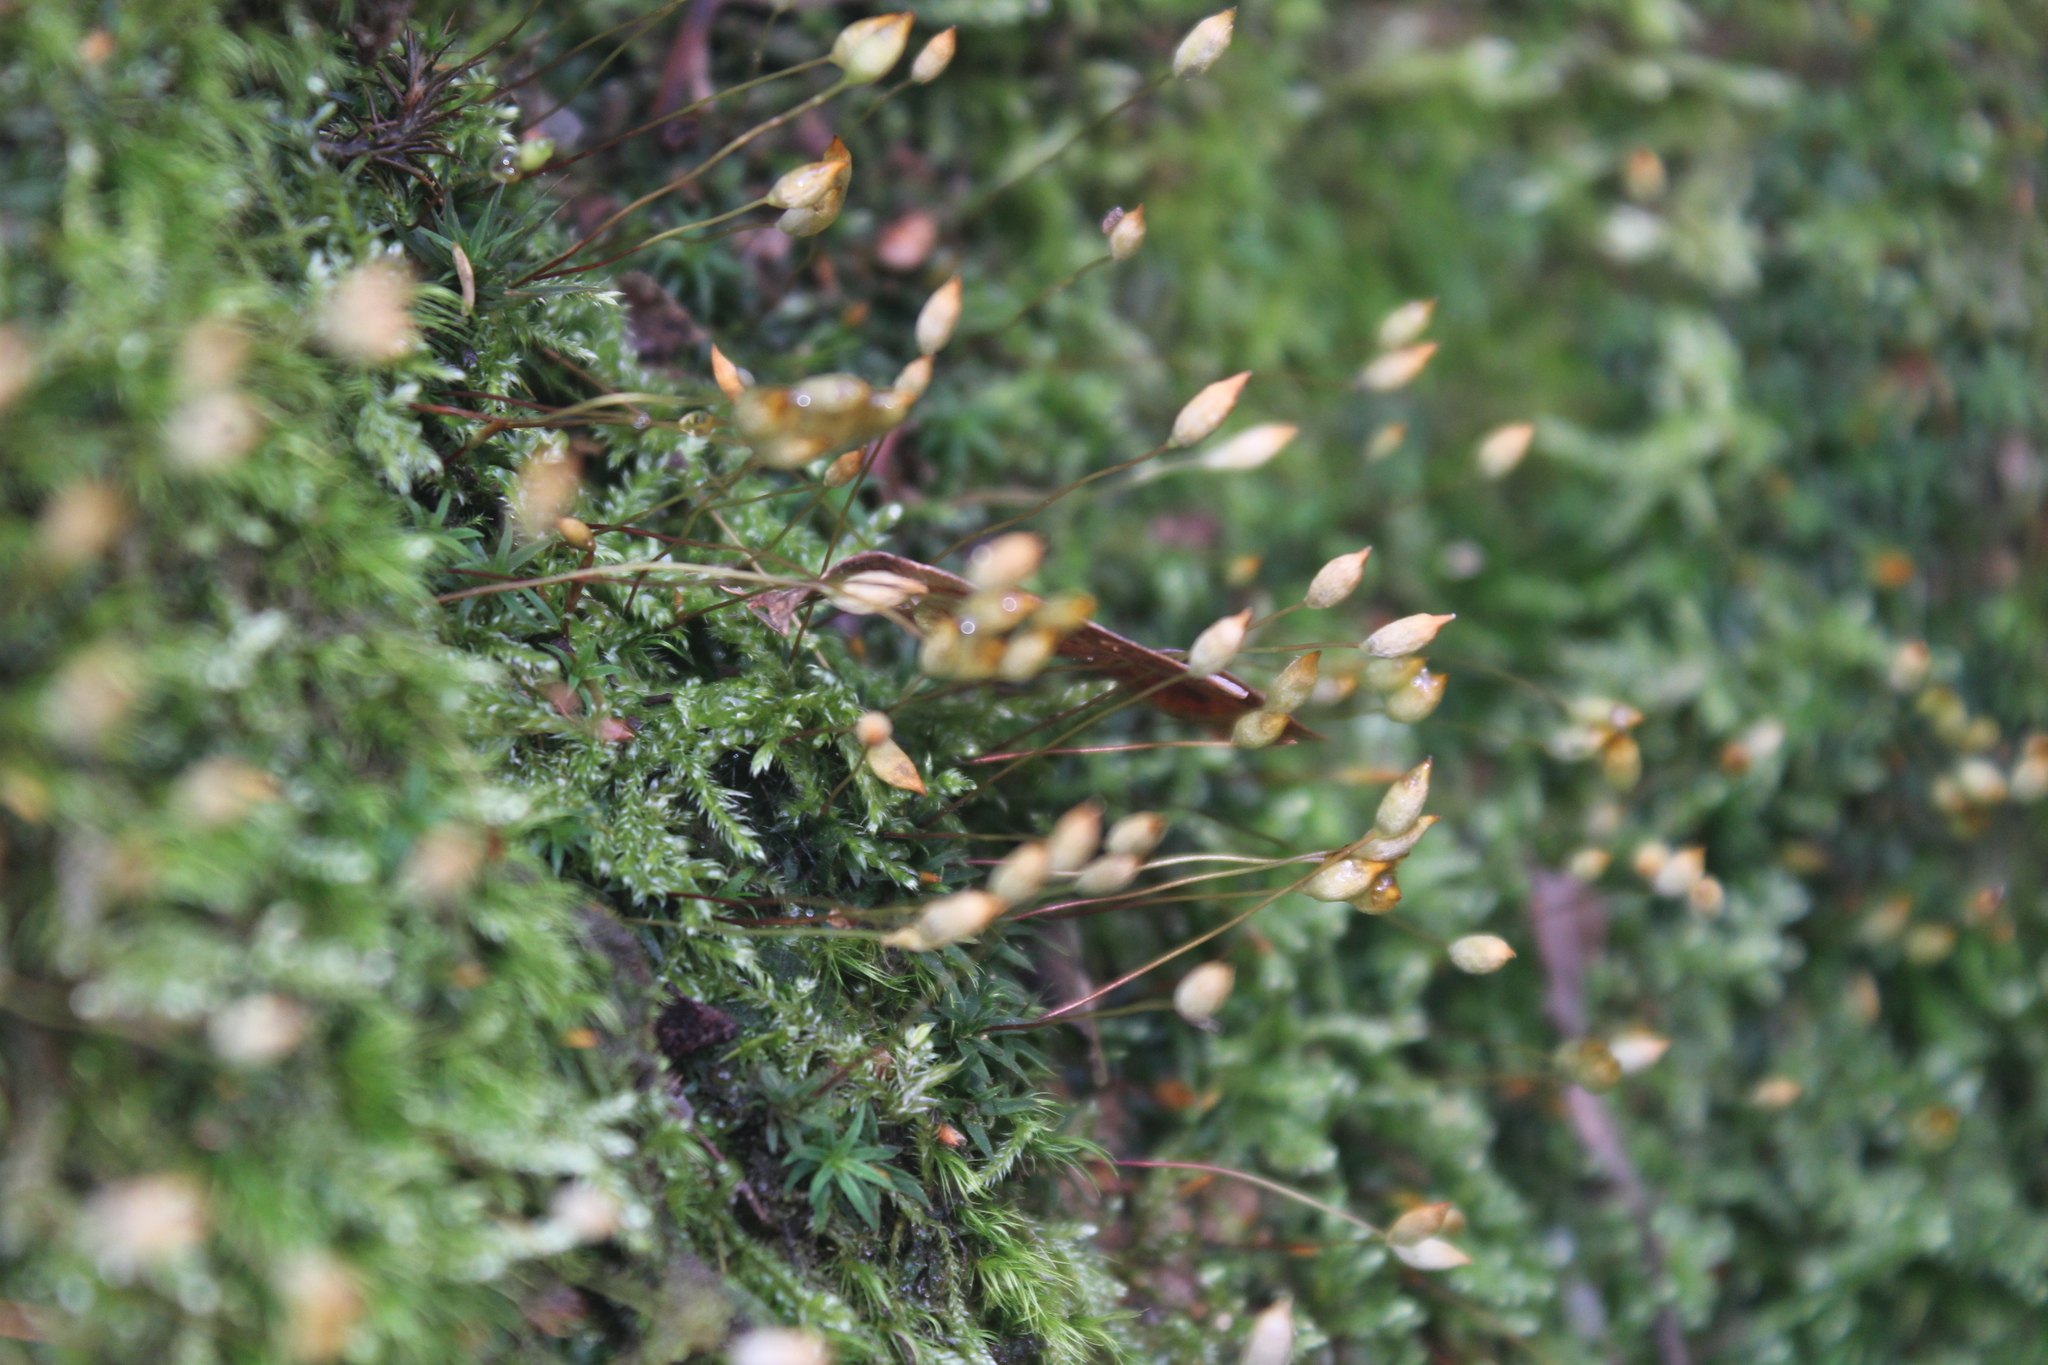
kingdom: Plantae
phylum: Bryophyta
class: Polytrichopsida
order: Polytrichales
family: Polytrichaceae
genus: Pogonatum
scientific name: Pogonatum aloides
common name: Aloe haircap
